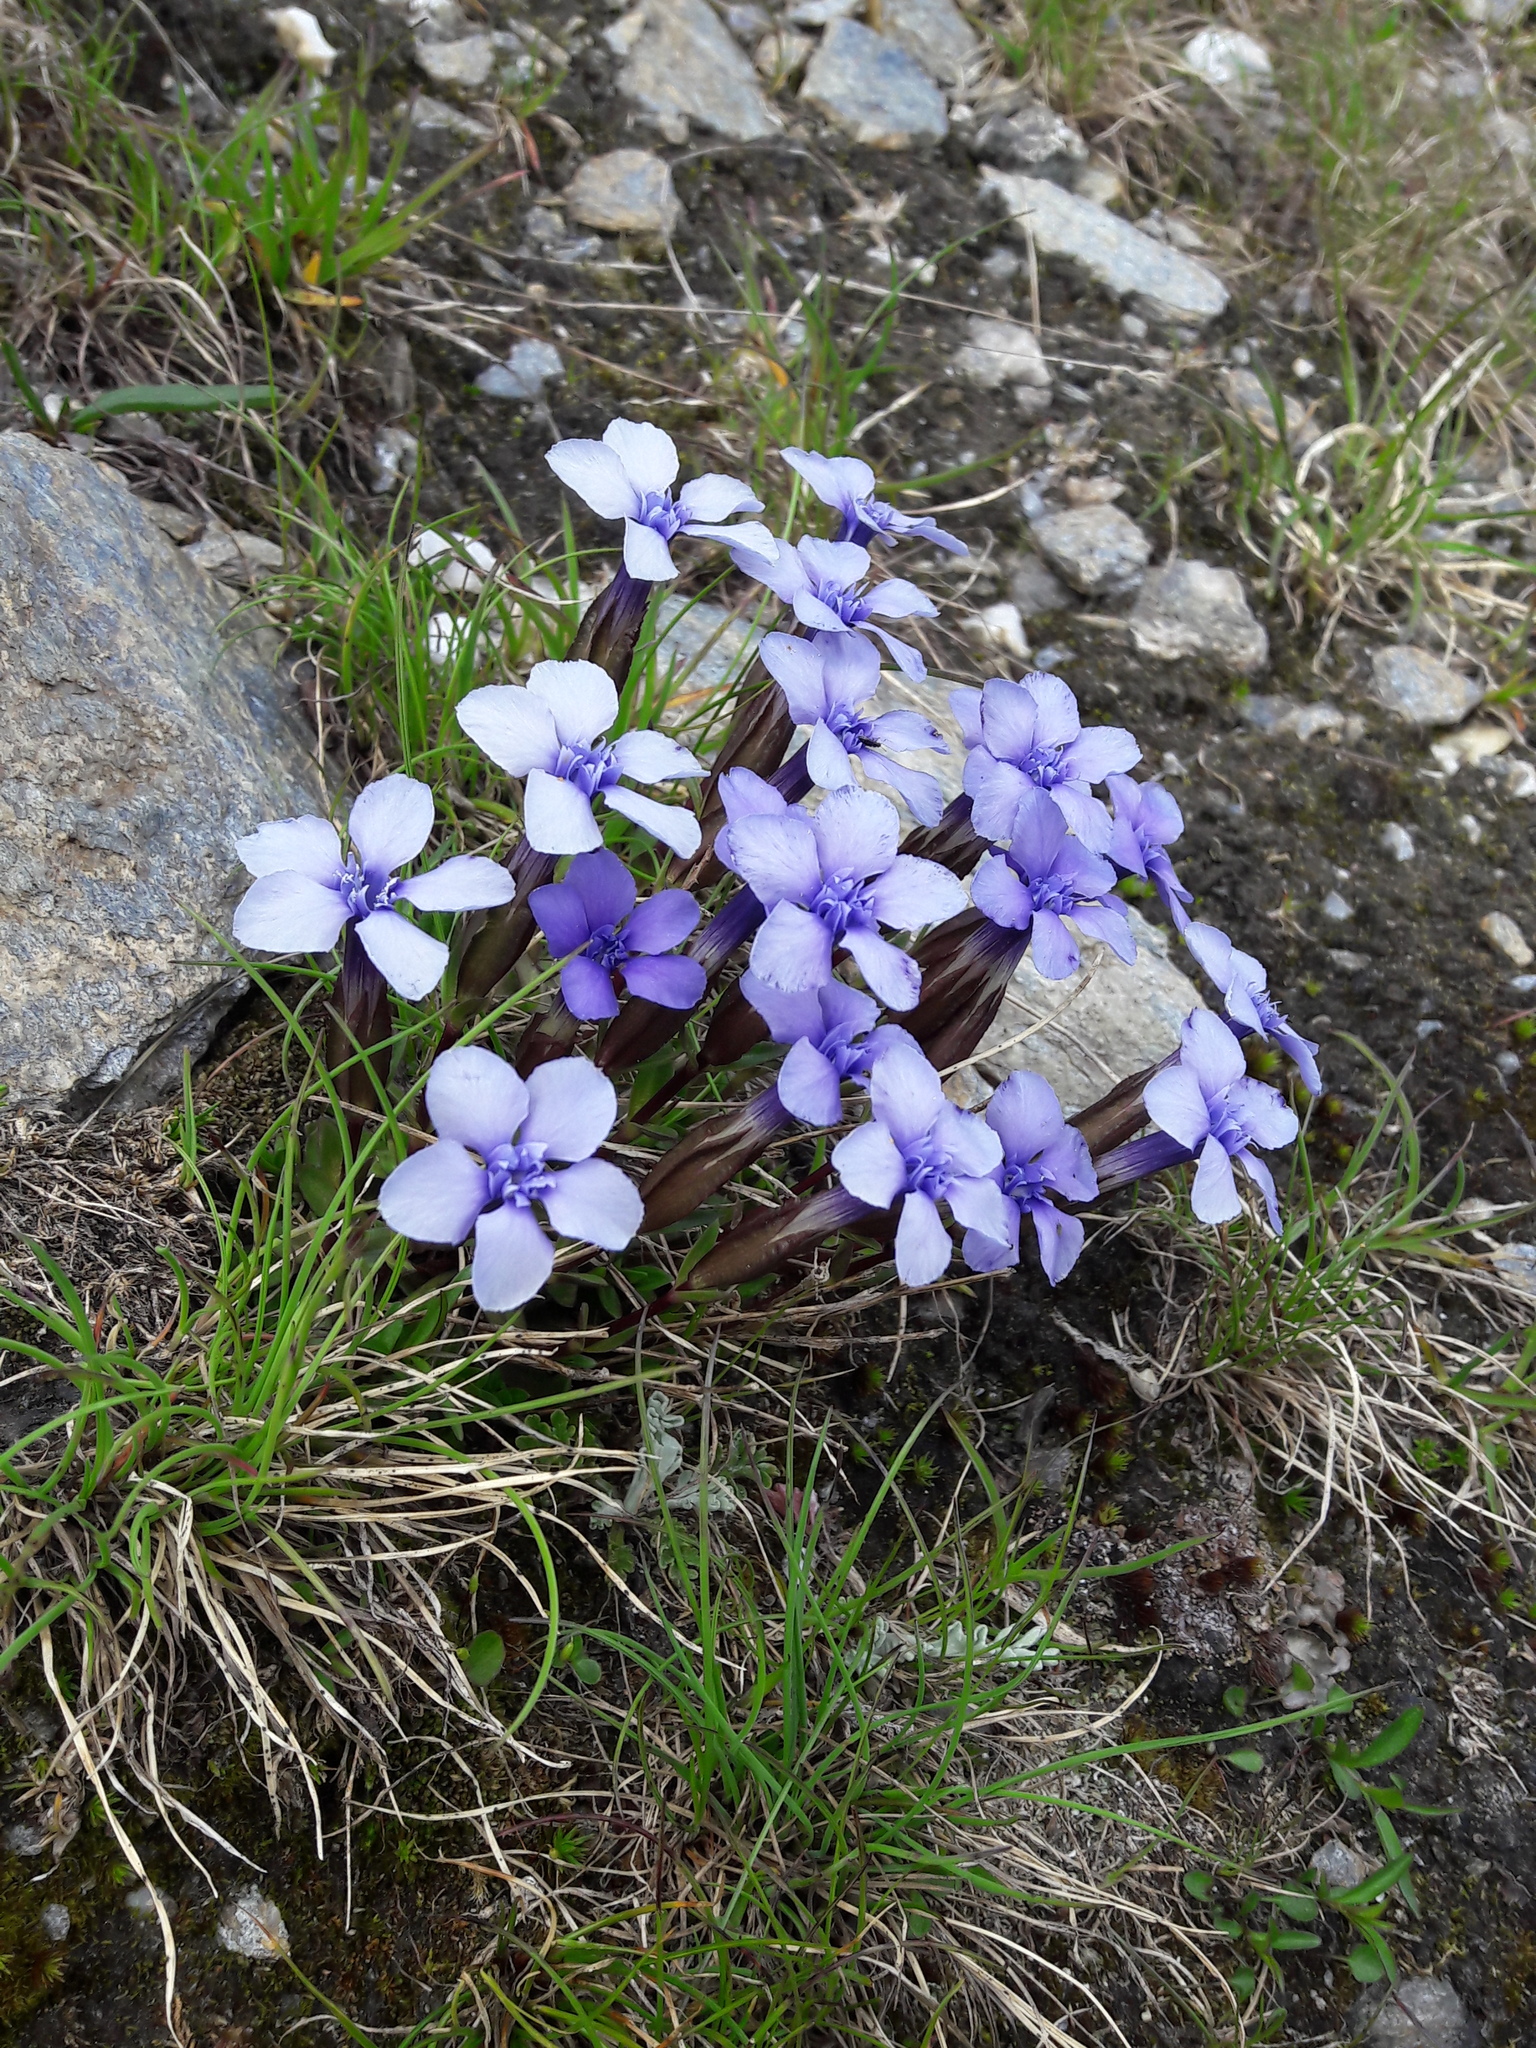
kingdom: Plantae
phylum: Tracheophyta
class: Magnoliopsida
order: Gentianales
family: Gentianaceae
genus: Gentiana
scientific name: Gentiana verna
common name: Spring gentian
